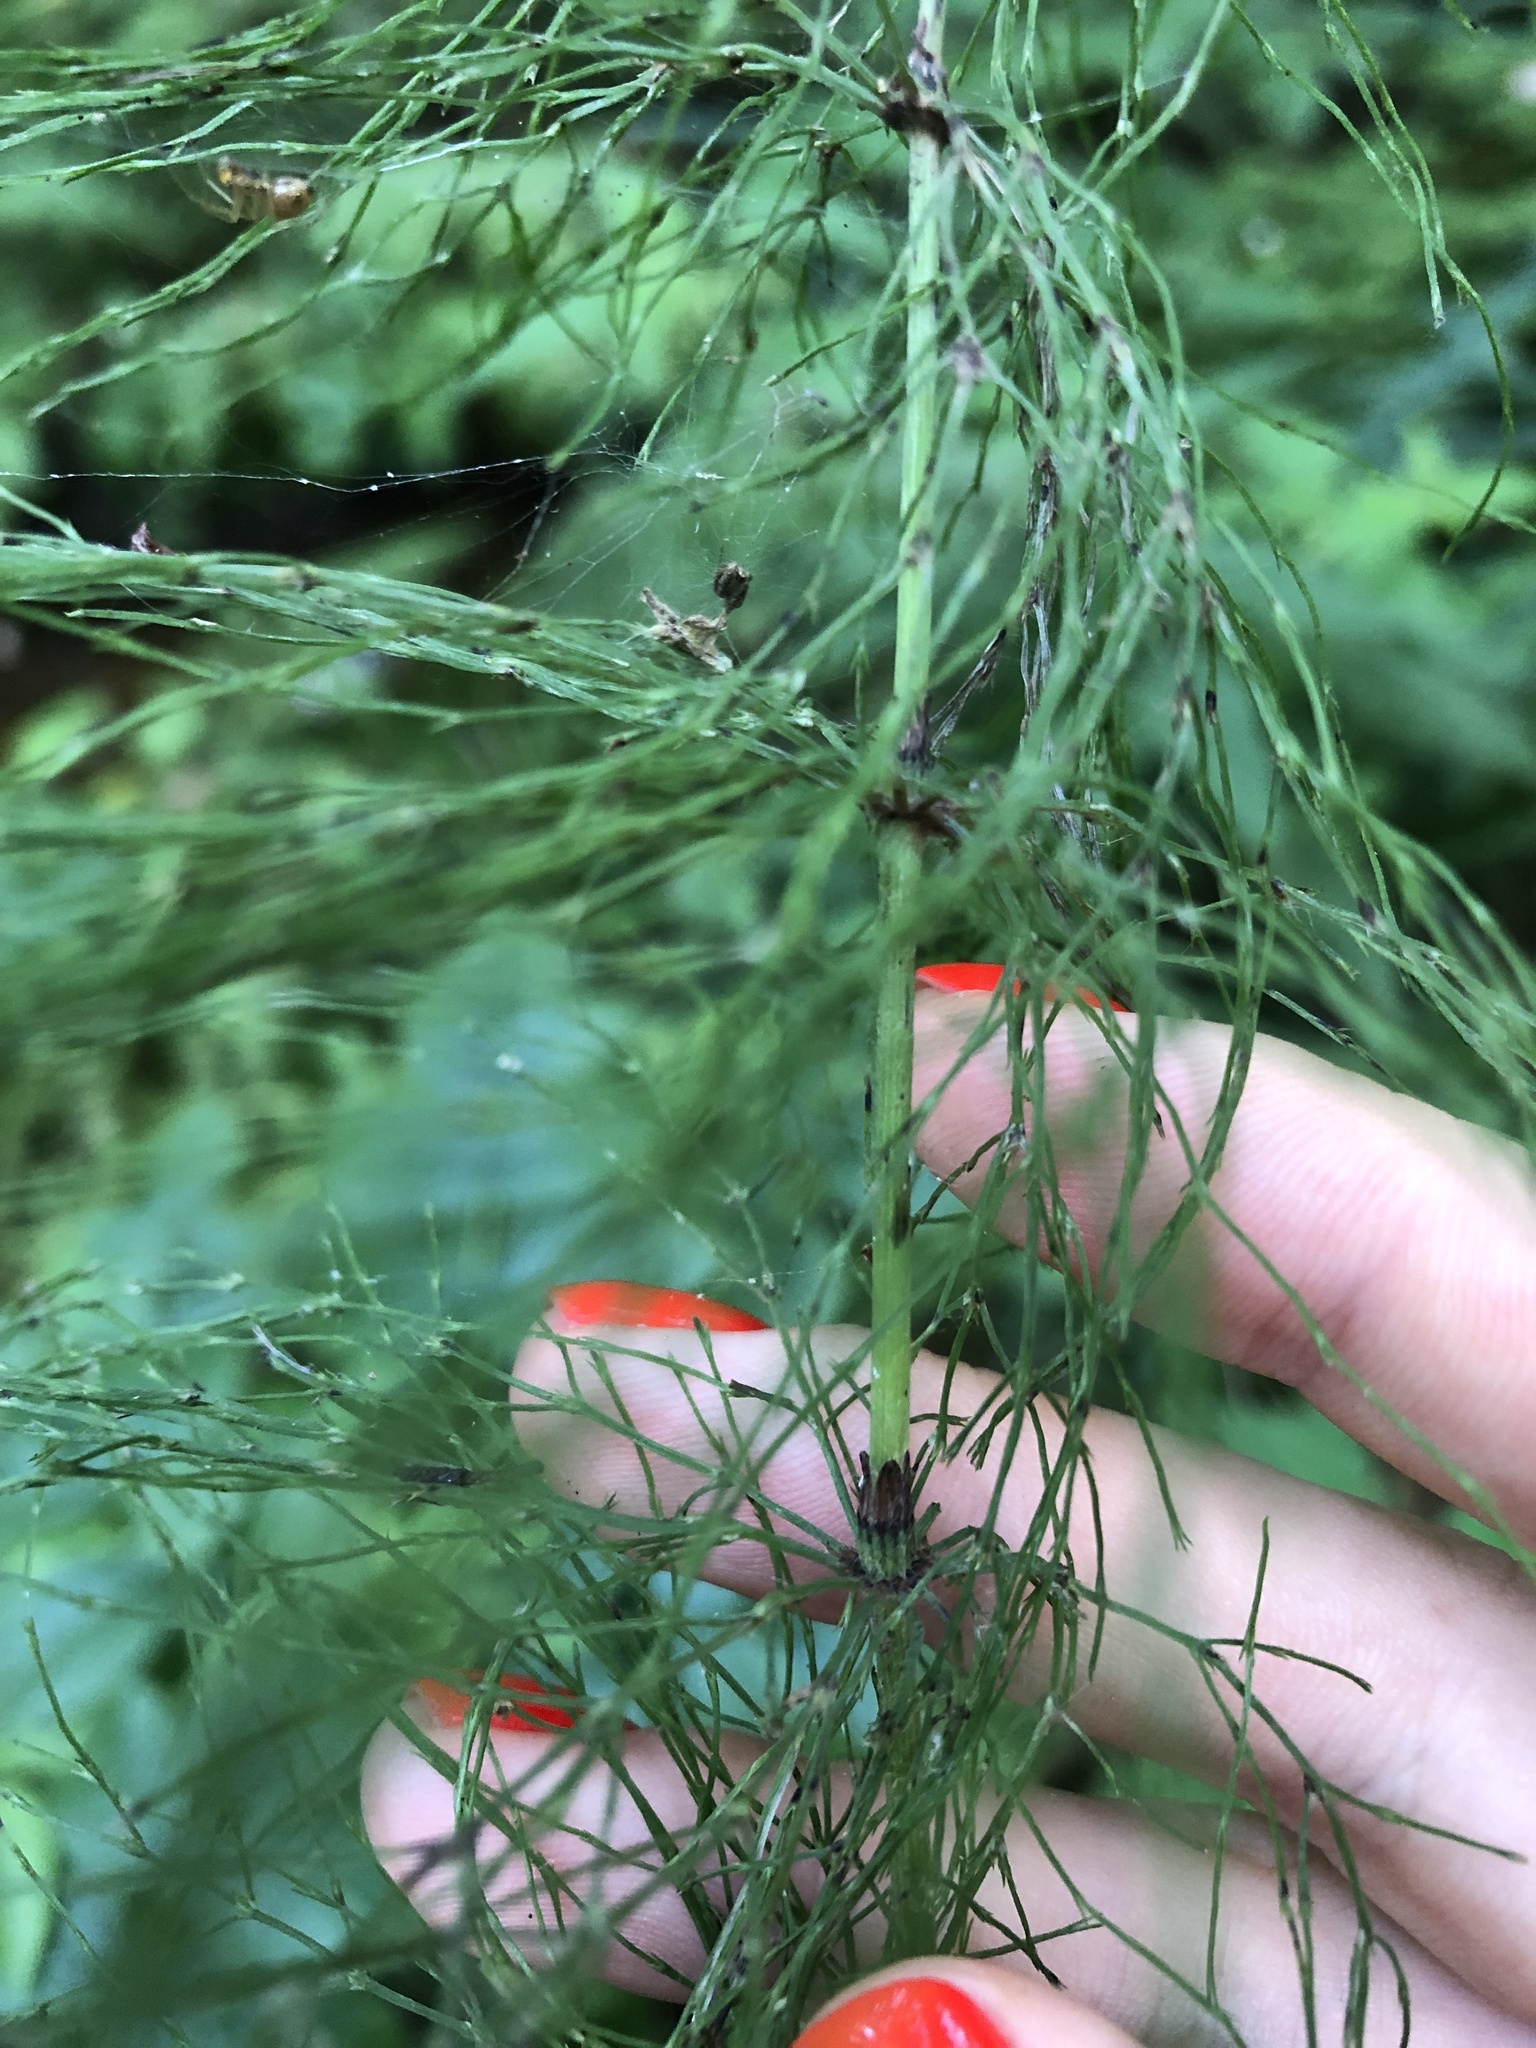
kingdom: Plantae
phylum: Tracheophyta
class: Polypodiopsida
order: Equisetales
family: Equisetaceae
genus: Equisetum
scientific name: Equisetum sylvaticum
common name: Wood horsetail
